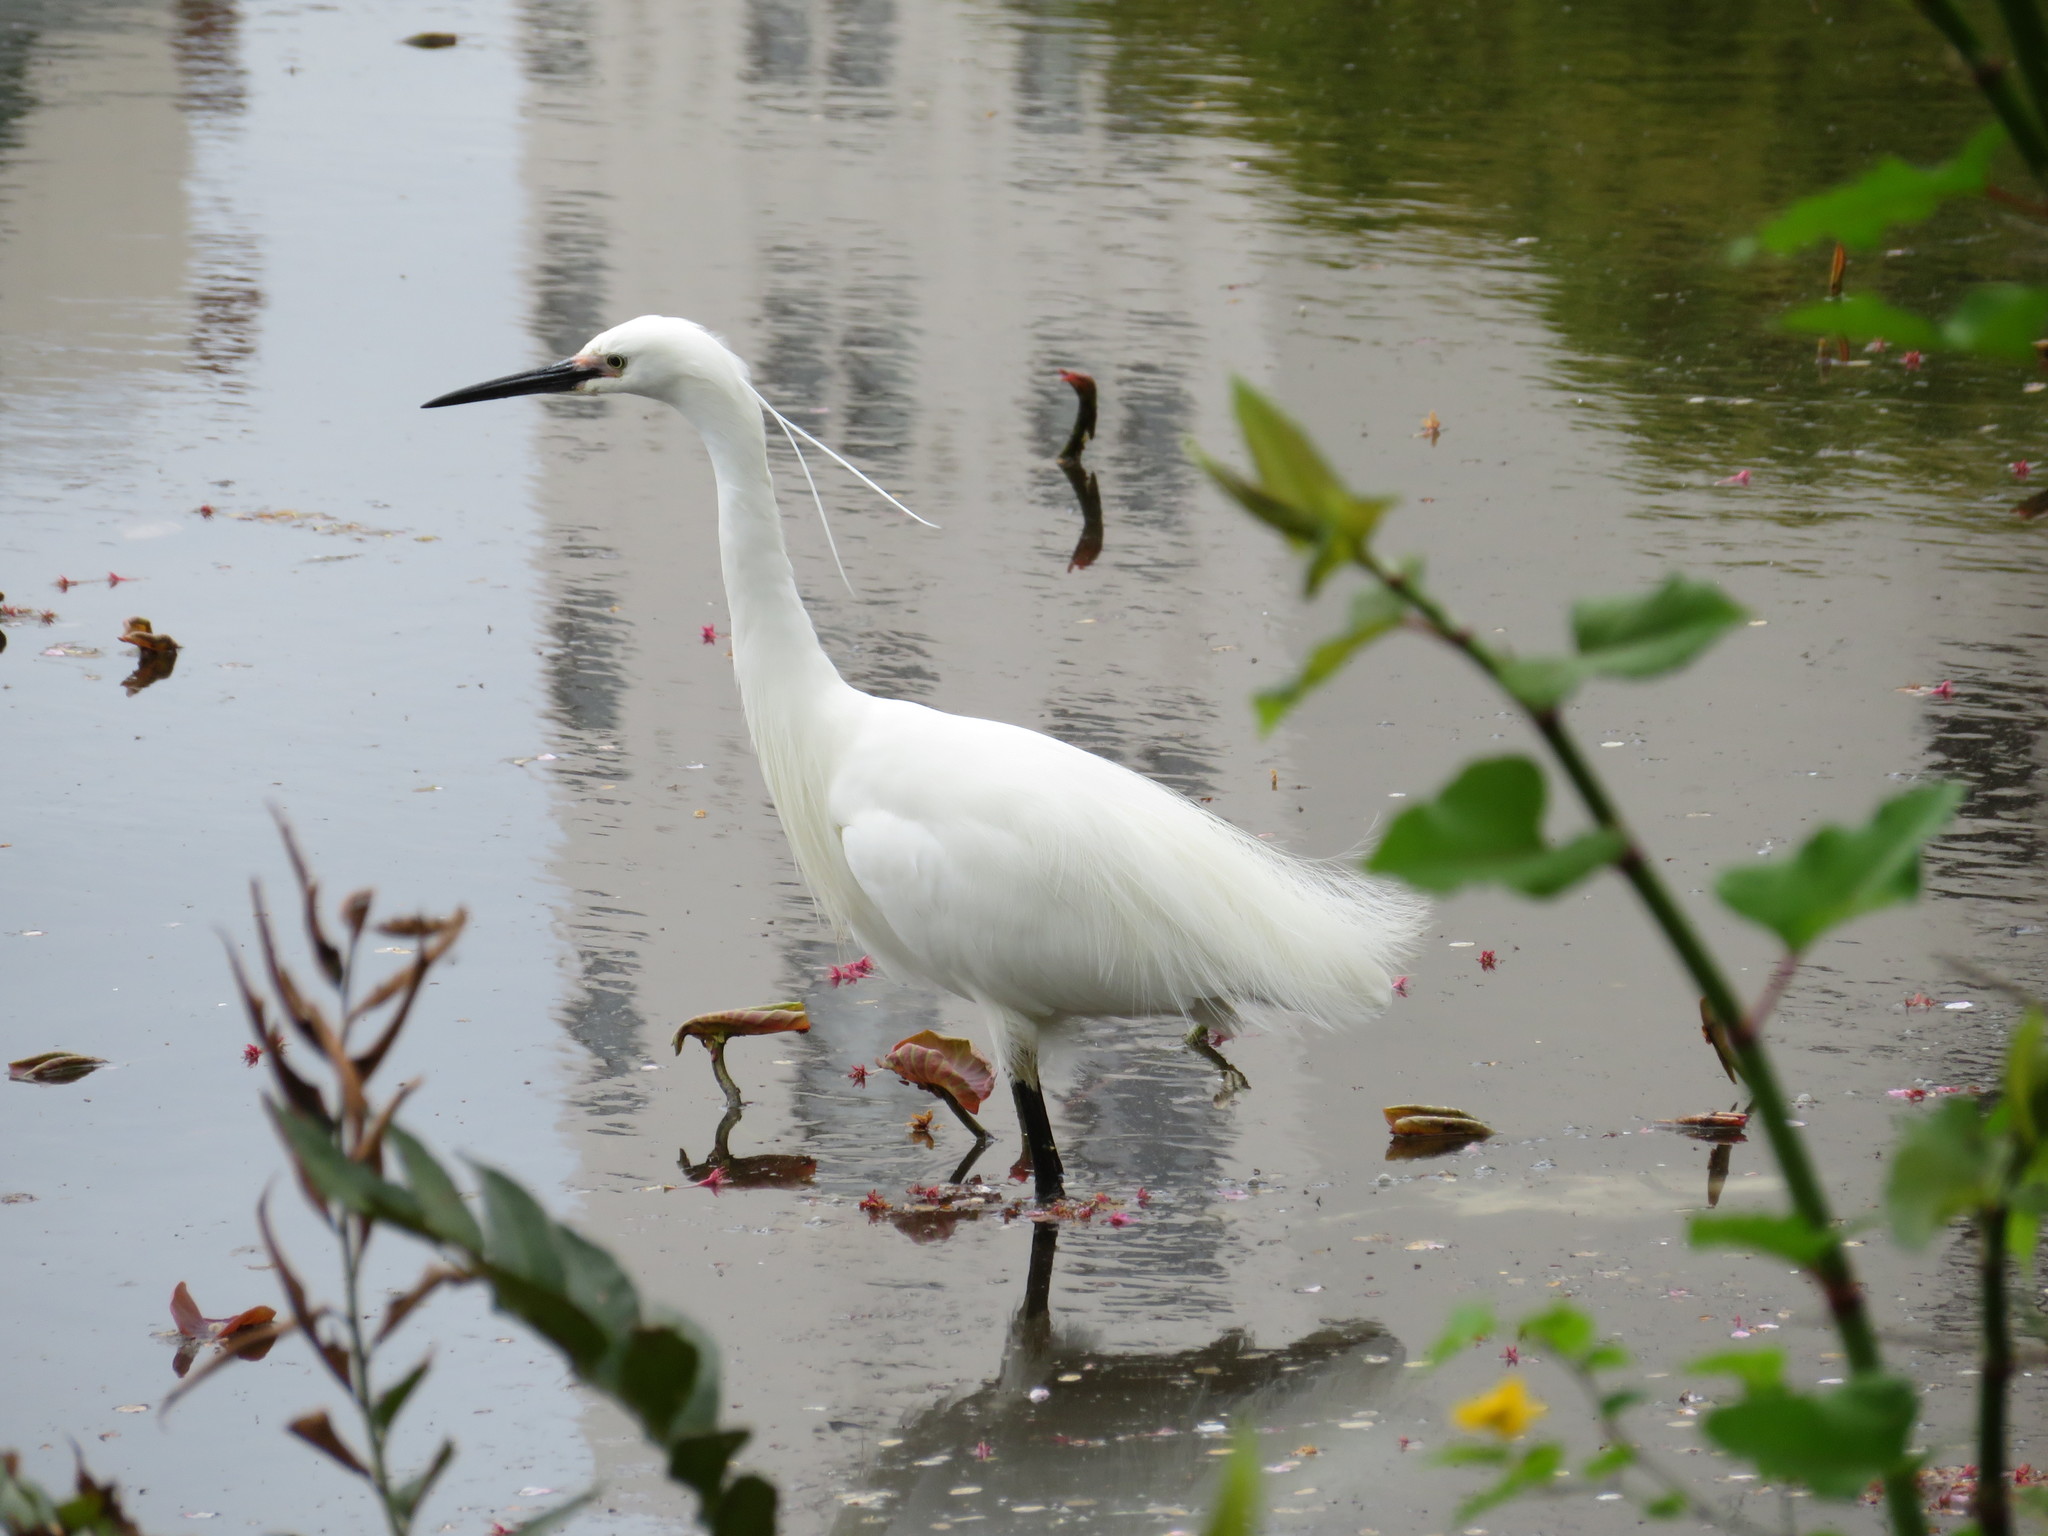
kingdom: Animalia
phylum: Chordata
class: Aves
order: Pelecaniformes
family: Ardeidae
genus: Egretta
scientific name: Egretta garzetta
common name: Little egret
